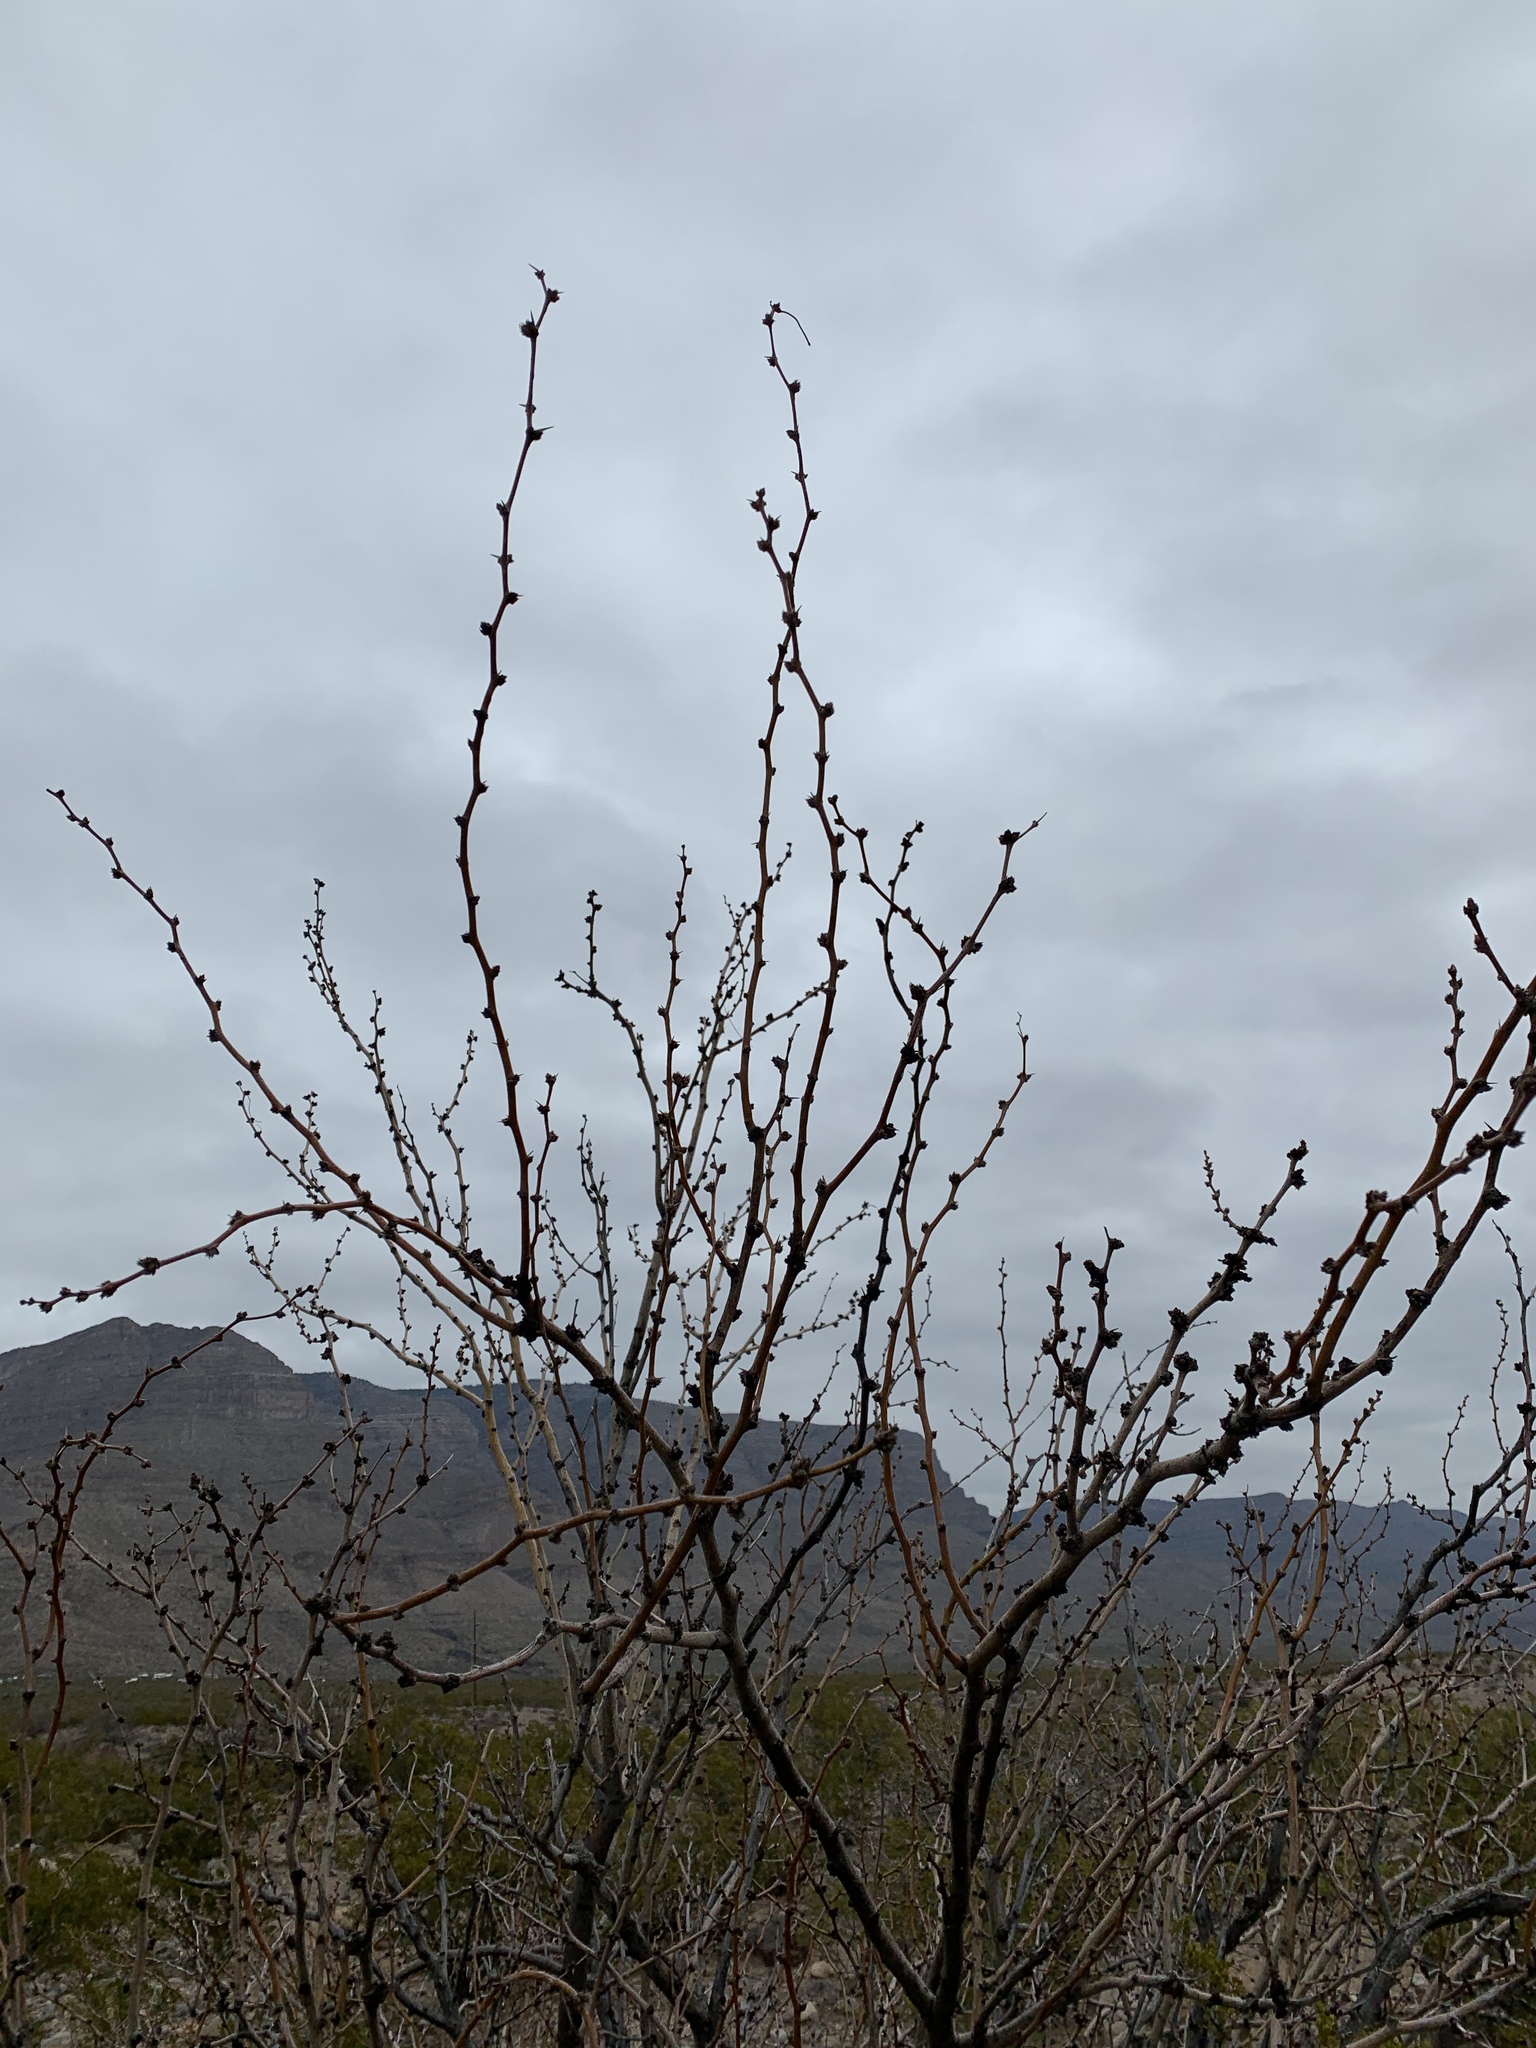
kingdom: Plantae
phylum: Tracheophyta
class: Magnoliopsida
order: Fabales
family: Fabaceae
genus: Prosopis
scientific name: Prosopis glandulosa
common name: Honey mesquite
